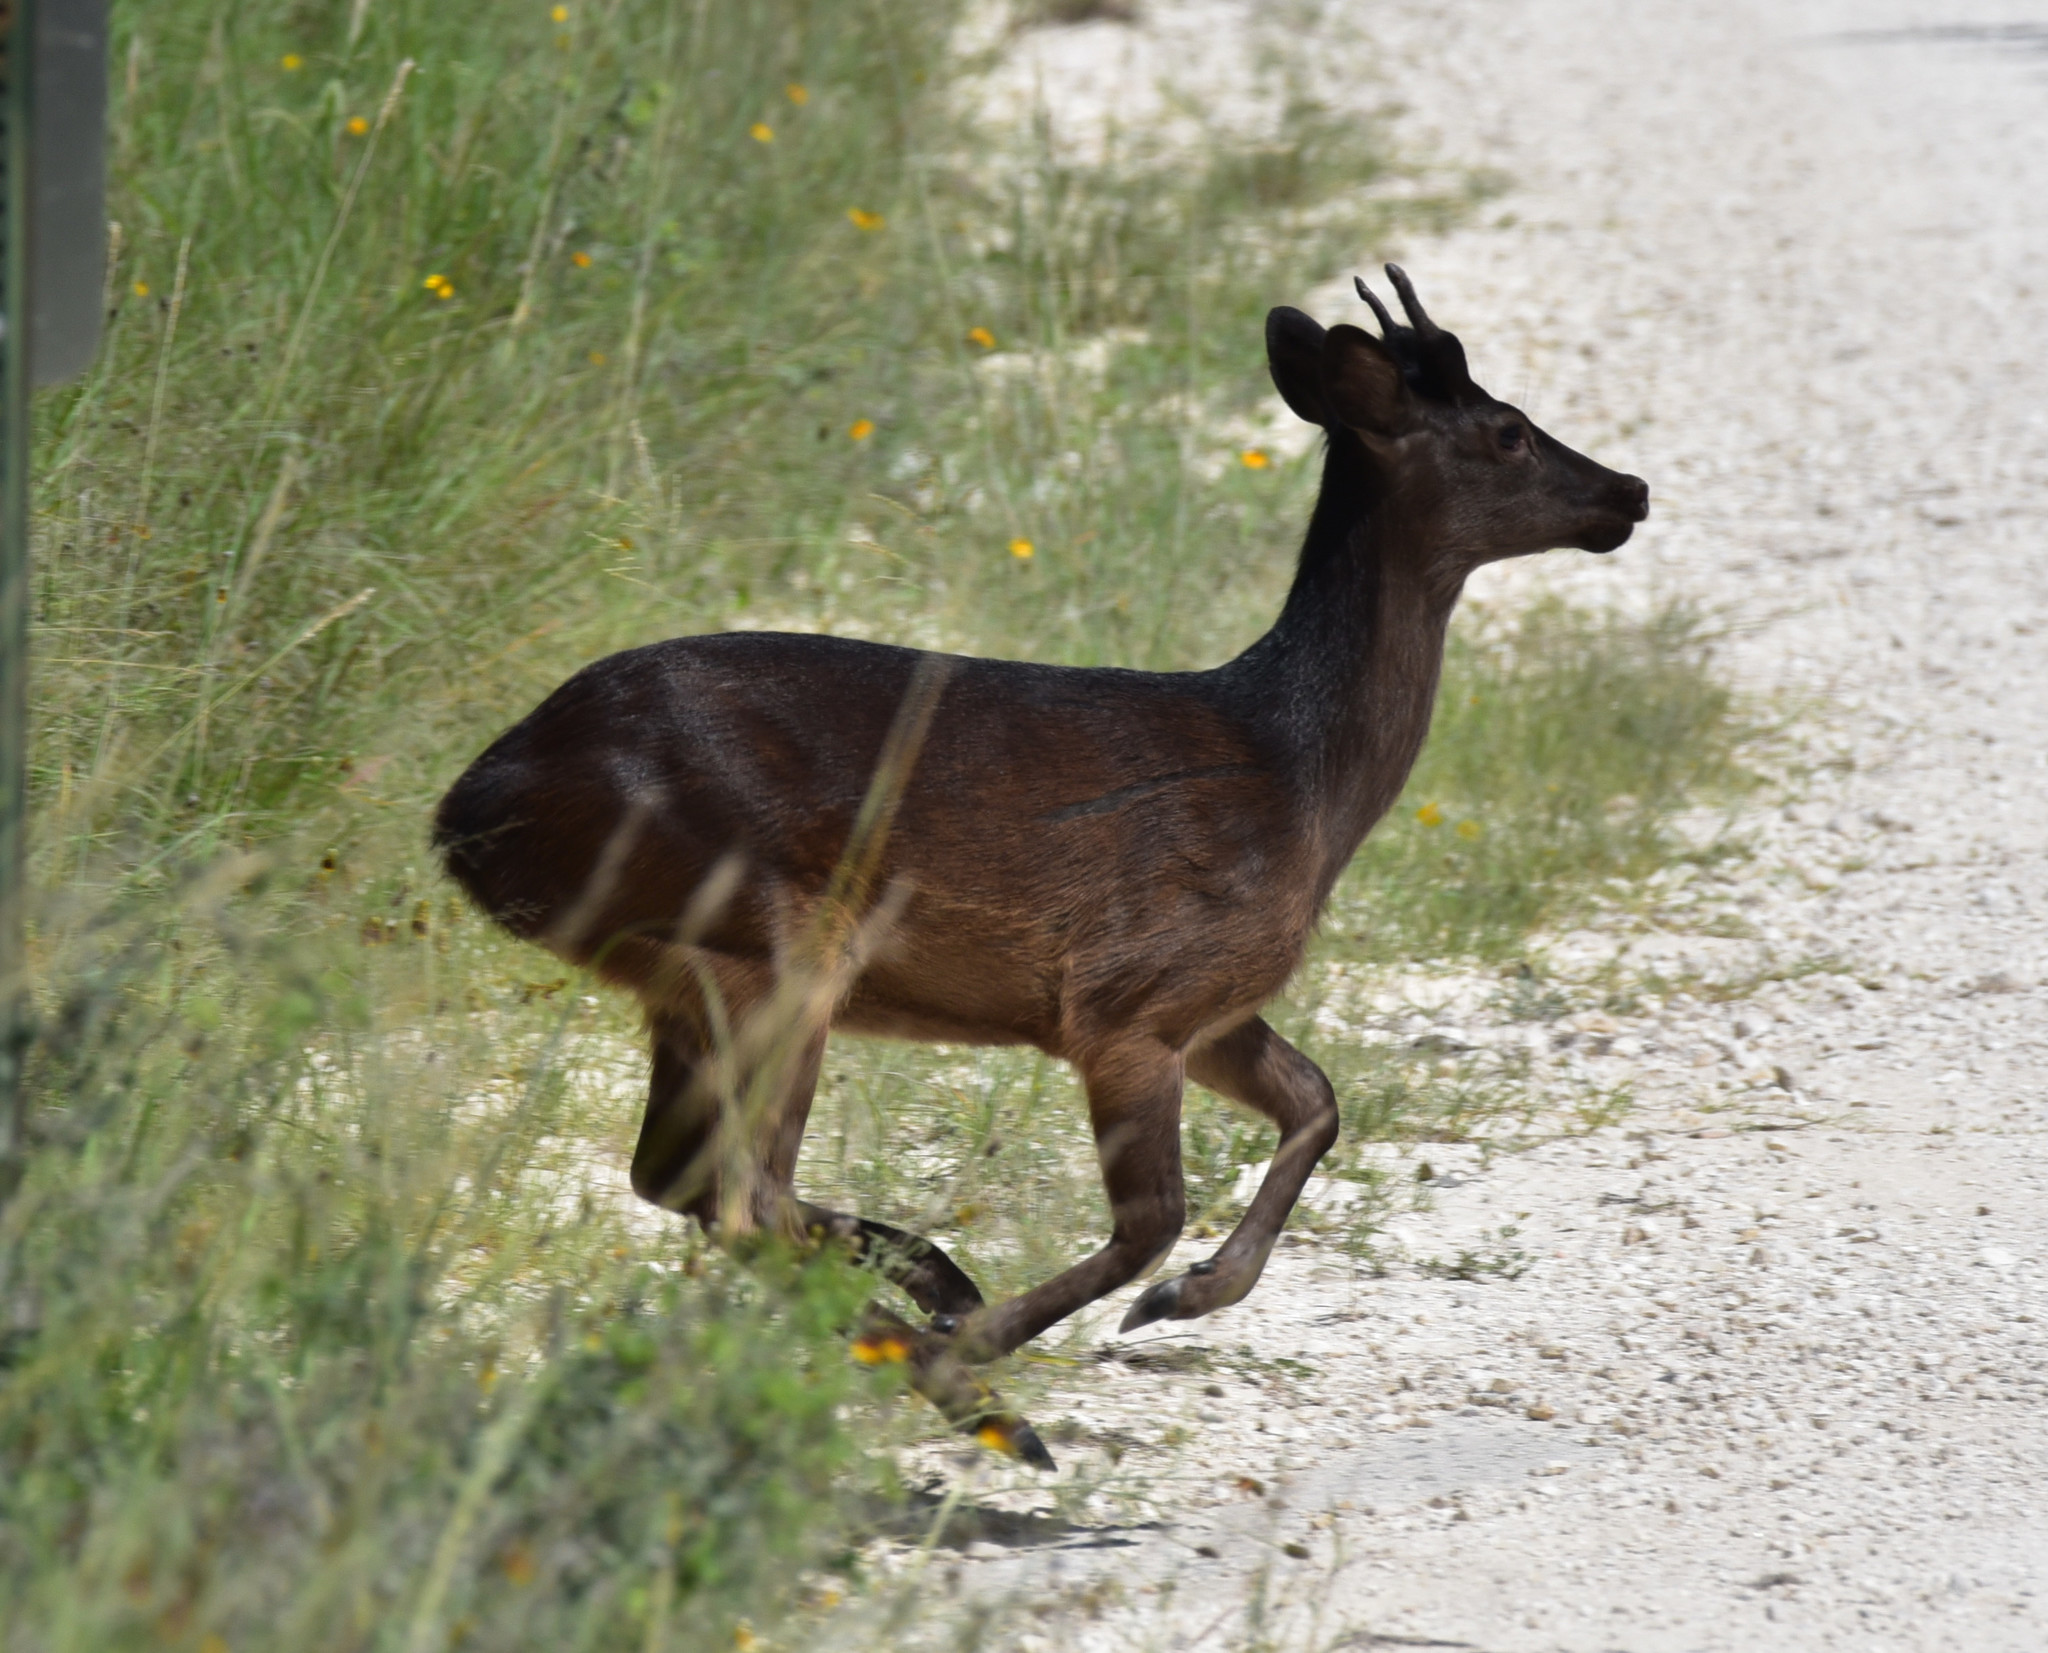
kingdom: Animalia
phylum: Chordata
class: Mammalia
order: Artiodactyla
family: Cervidae
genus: Dama
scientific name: Dama dama
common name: Fallow deer
